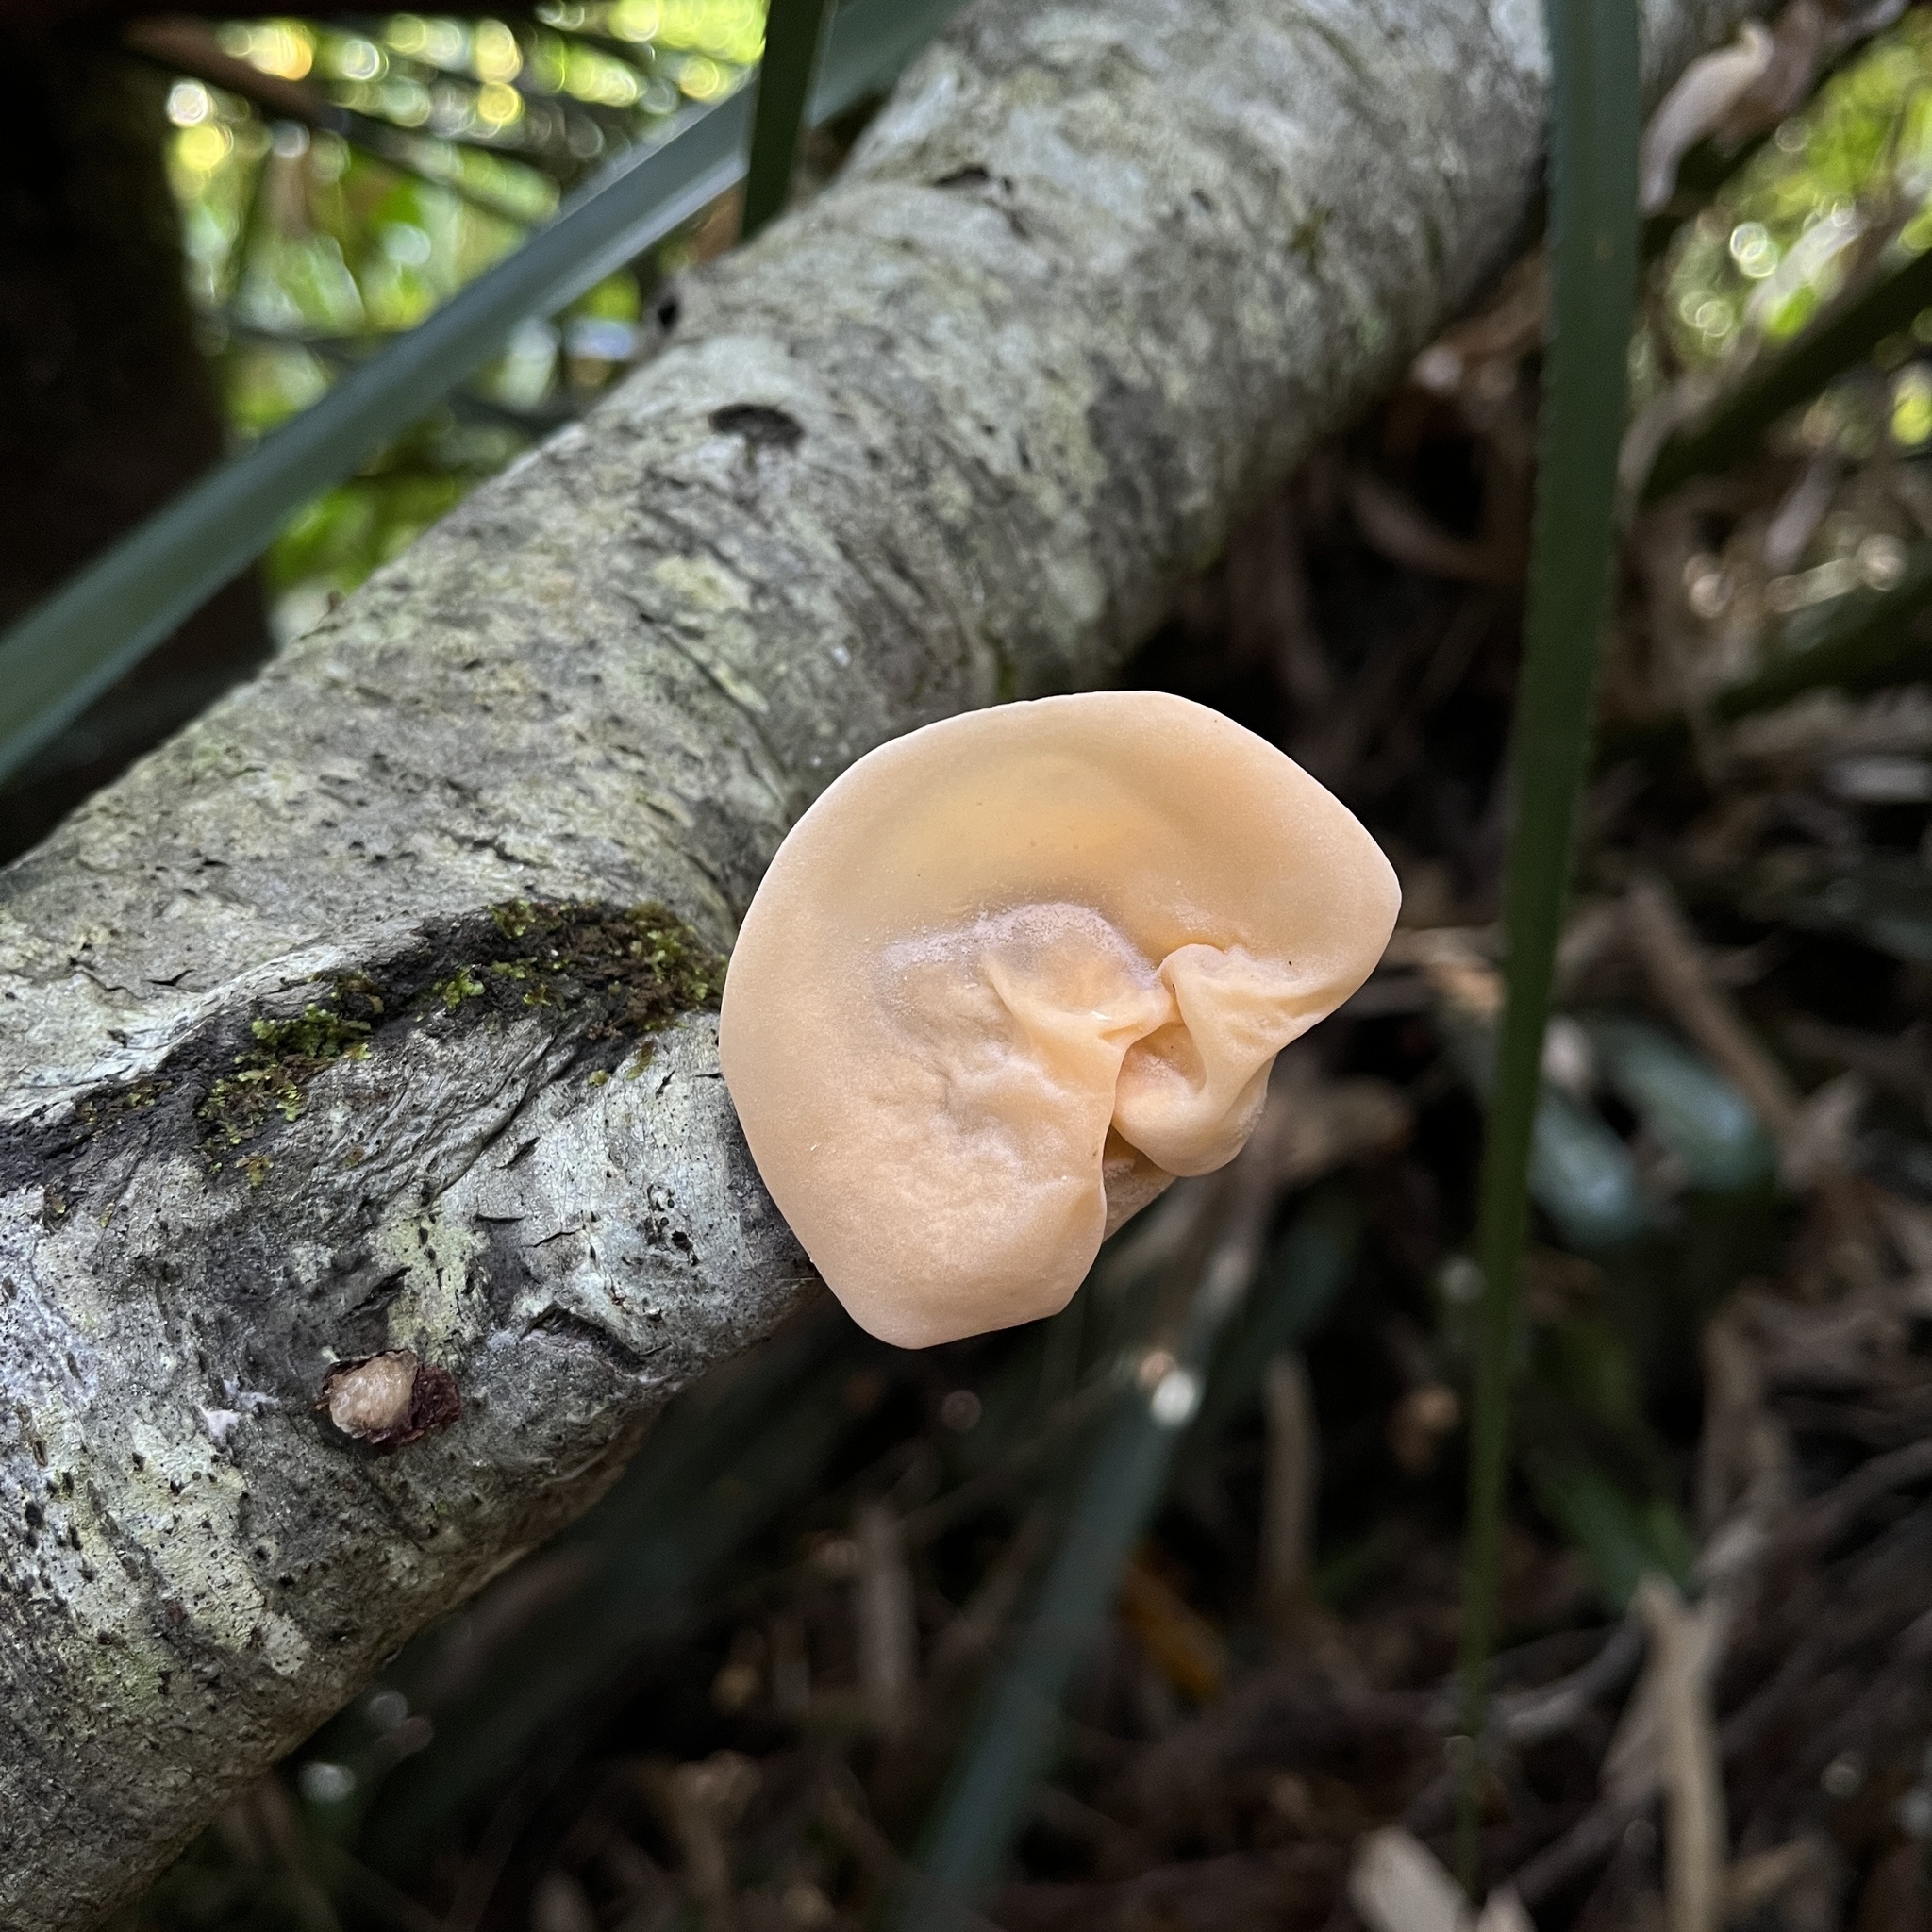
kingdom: Fungi
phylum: Basidiomycota
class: Agaricomycetes
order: Russulales
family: Stereaceae
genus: Aleurodiscus
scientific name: Aleurodiscus vitellinus
